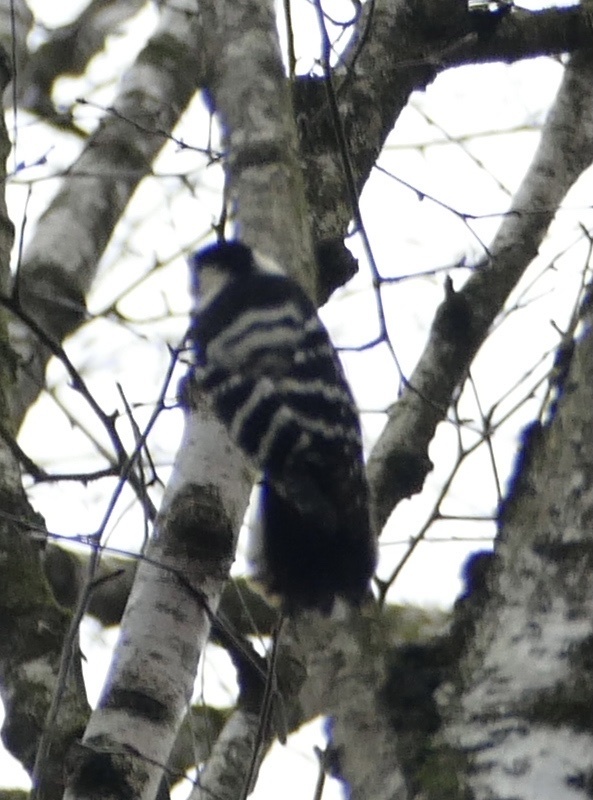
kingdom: Animalia
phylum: Chordata
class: Aves
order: Piciformes
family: Picidae
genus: Dryobates
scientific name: Dryobates minor
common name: Lesser spotted woodpecker
